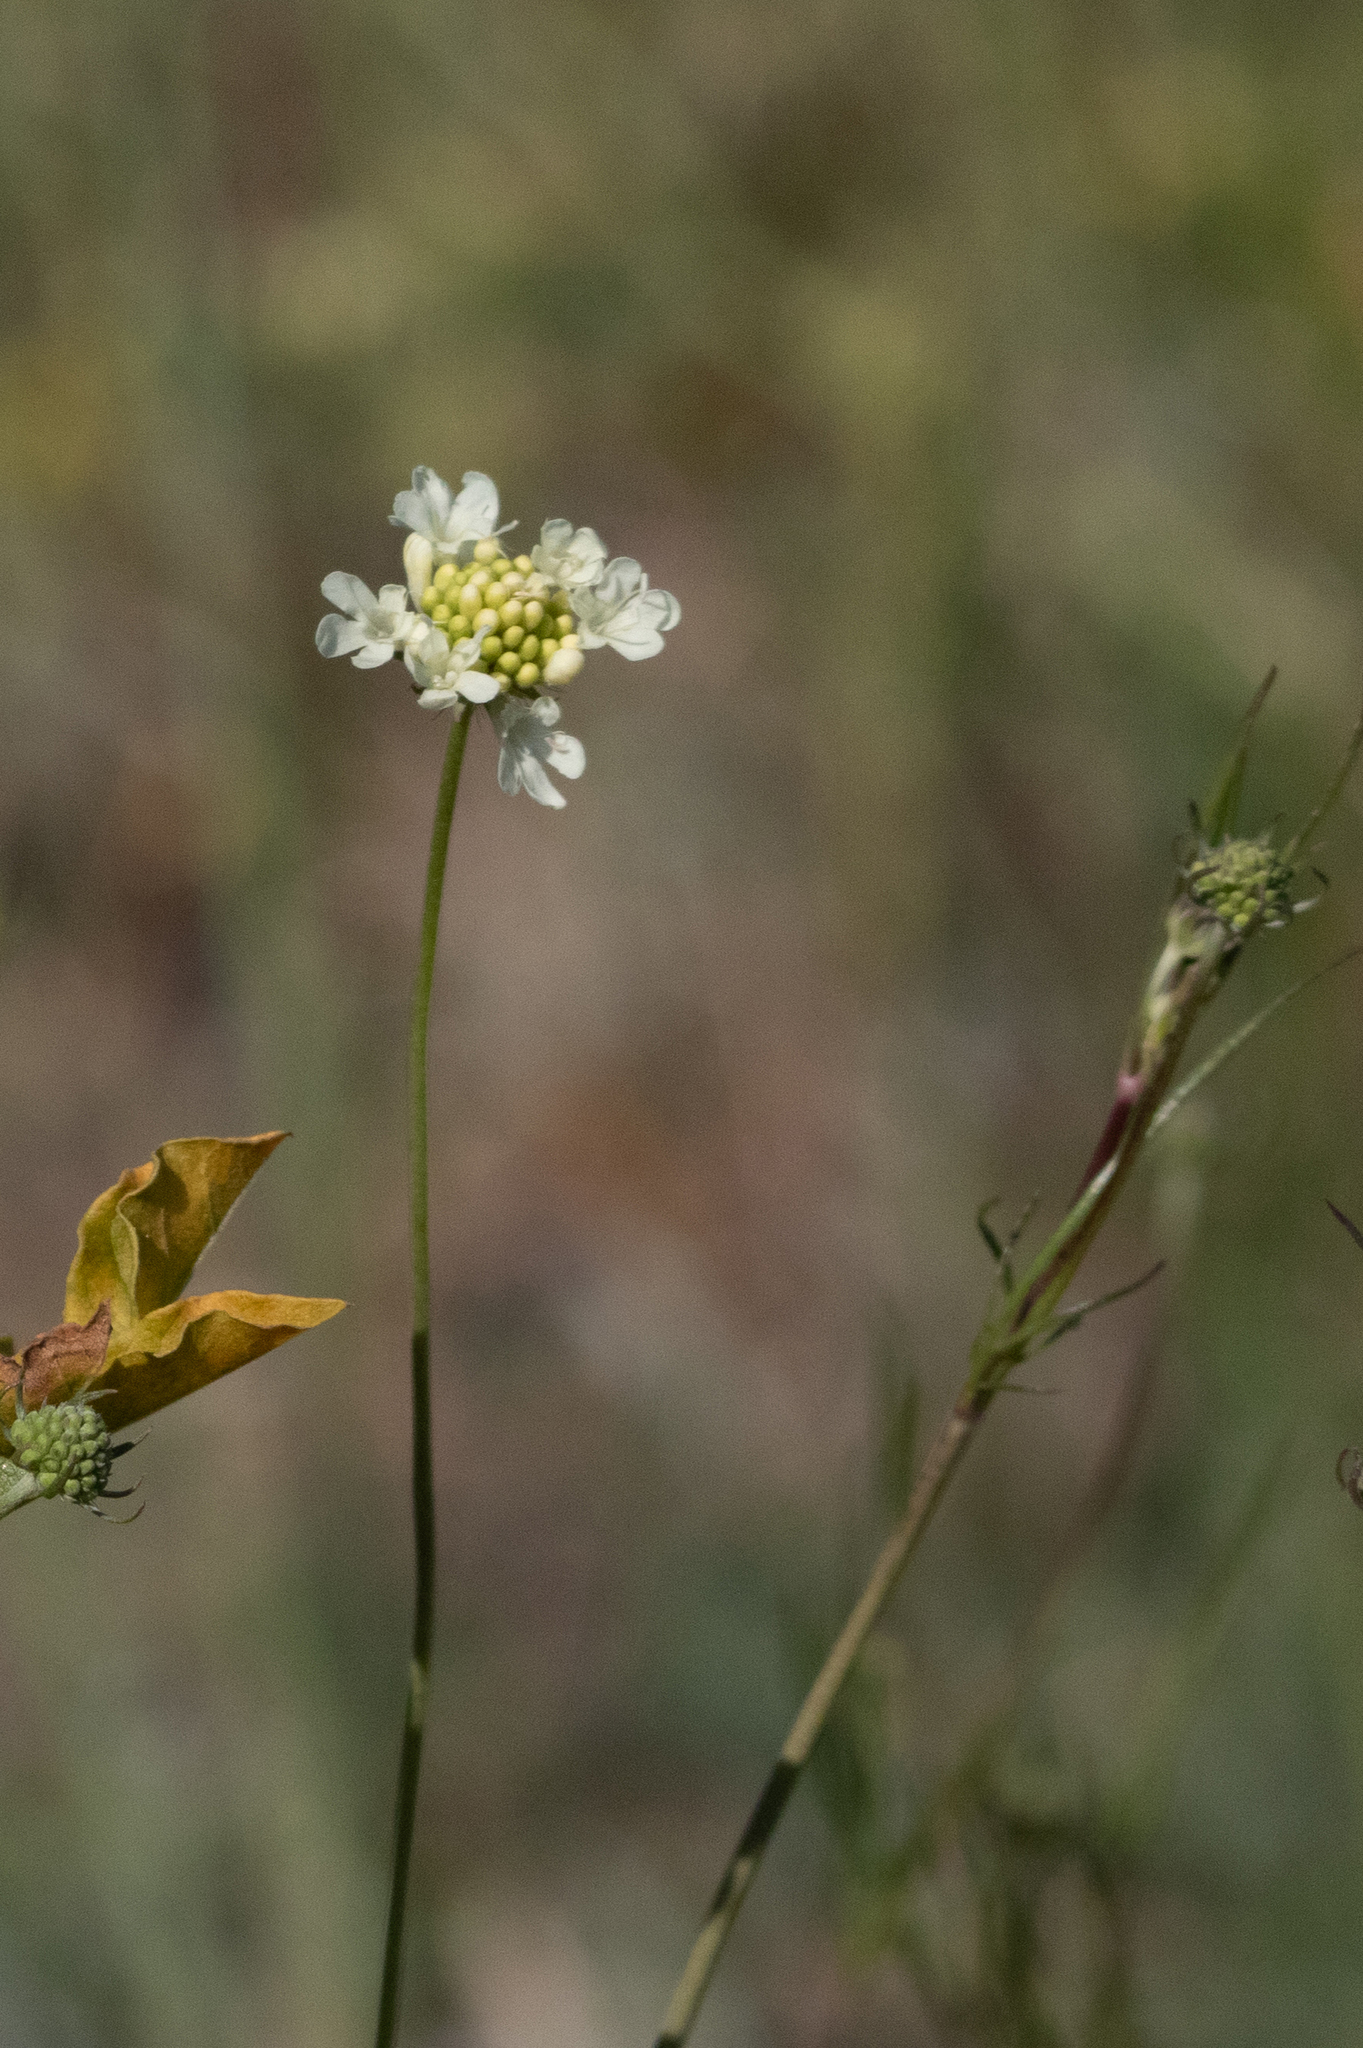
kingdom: Plantae
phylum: Tracheophyta
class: Magnoliopsida
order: Dipsacales
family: Caprifoliaceae
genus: Scabiosa
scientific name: Scabiosa ochroleuca
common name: Cream pincushions
